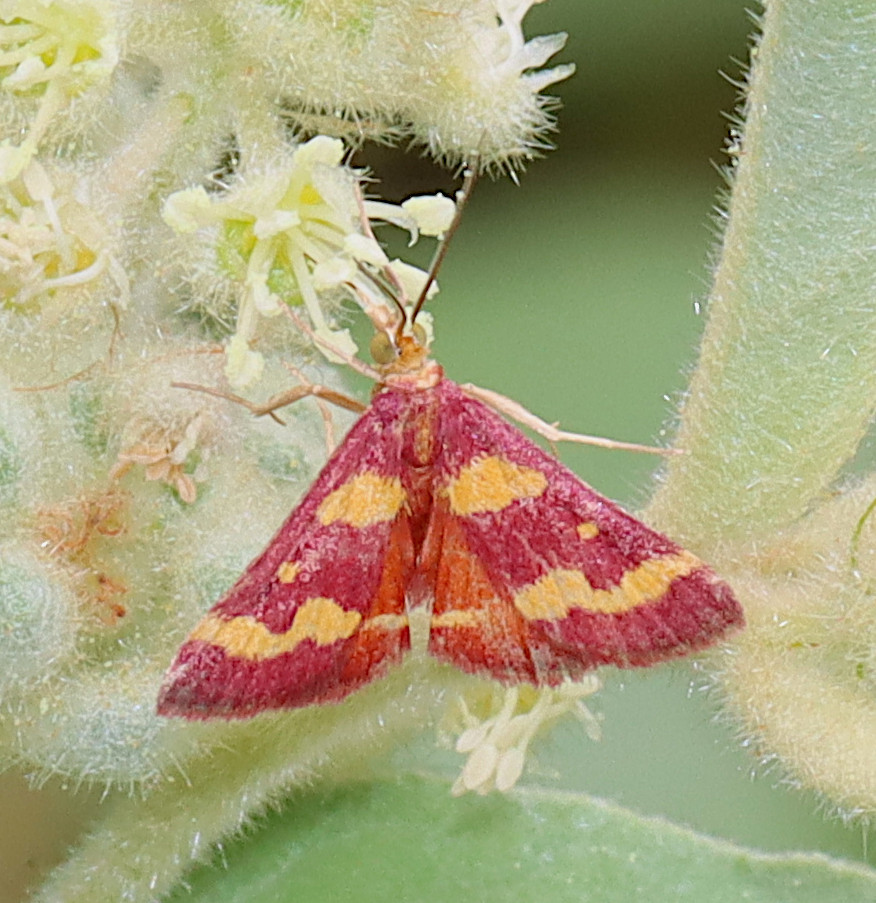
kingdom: Animalia
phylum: Arthropoda
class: Insecta
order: Lepidoptera
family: Crambidae
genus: Pyrausta
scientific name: Pyrausta tyralis
